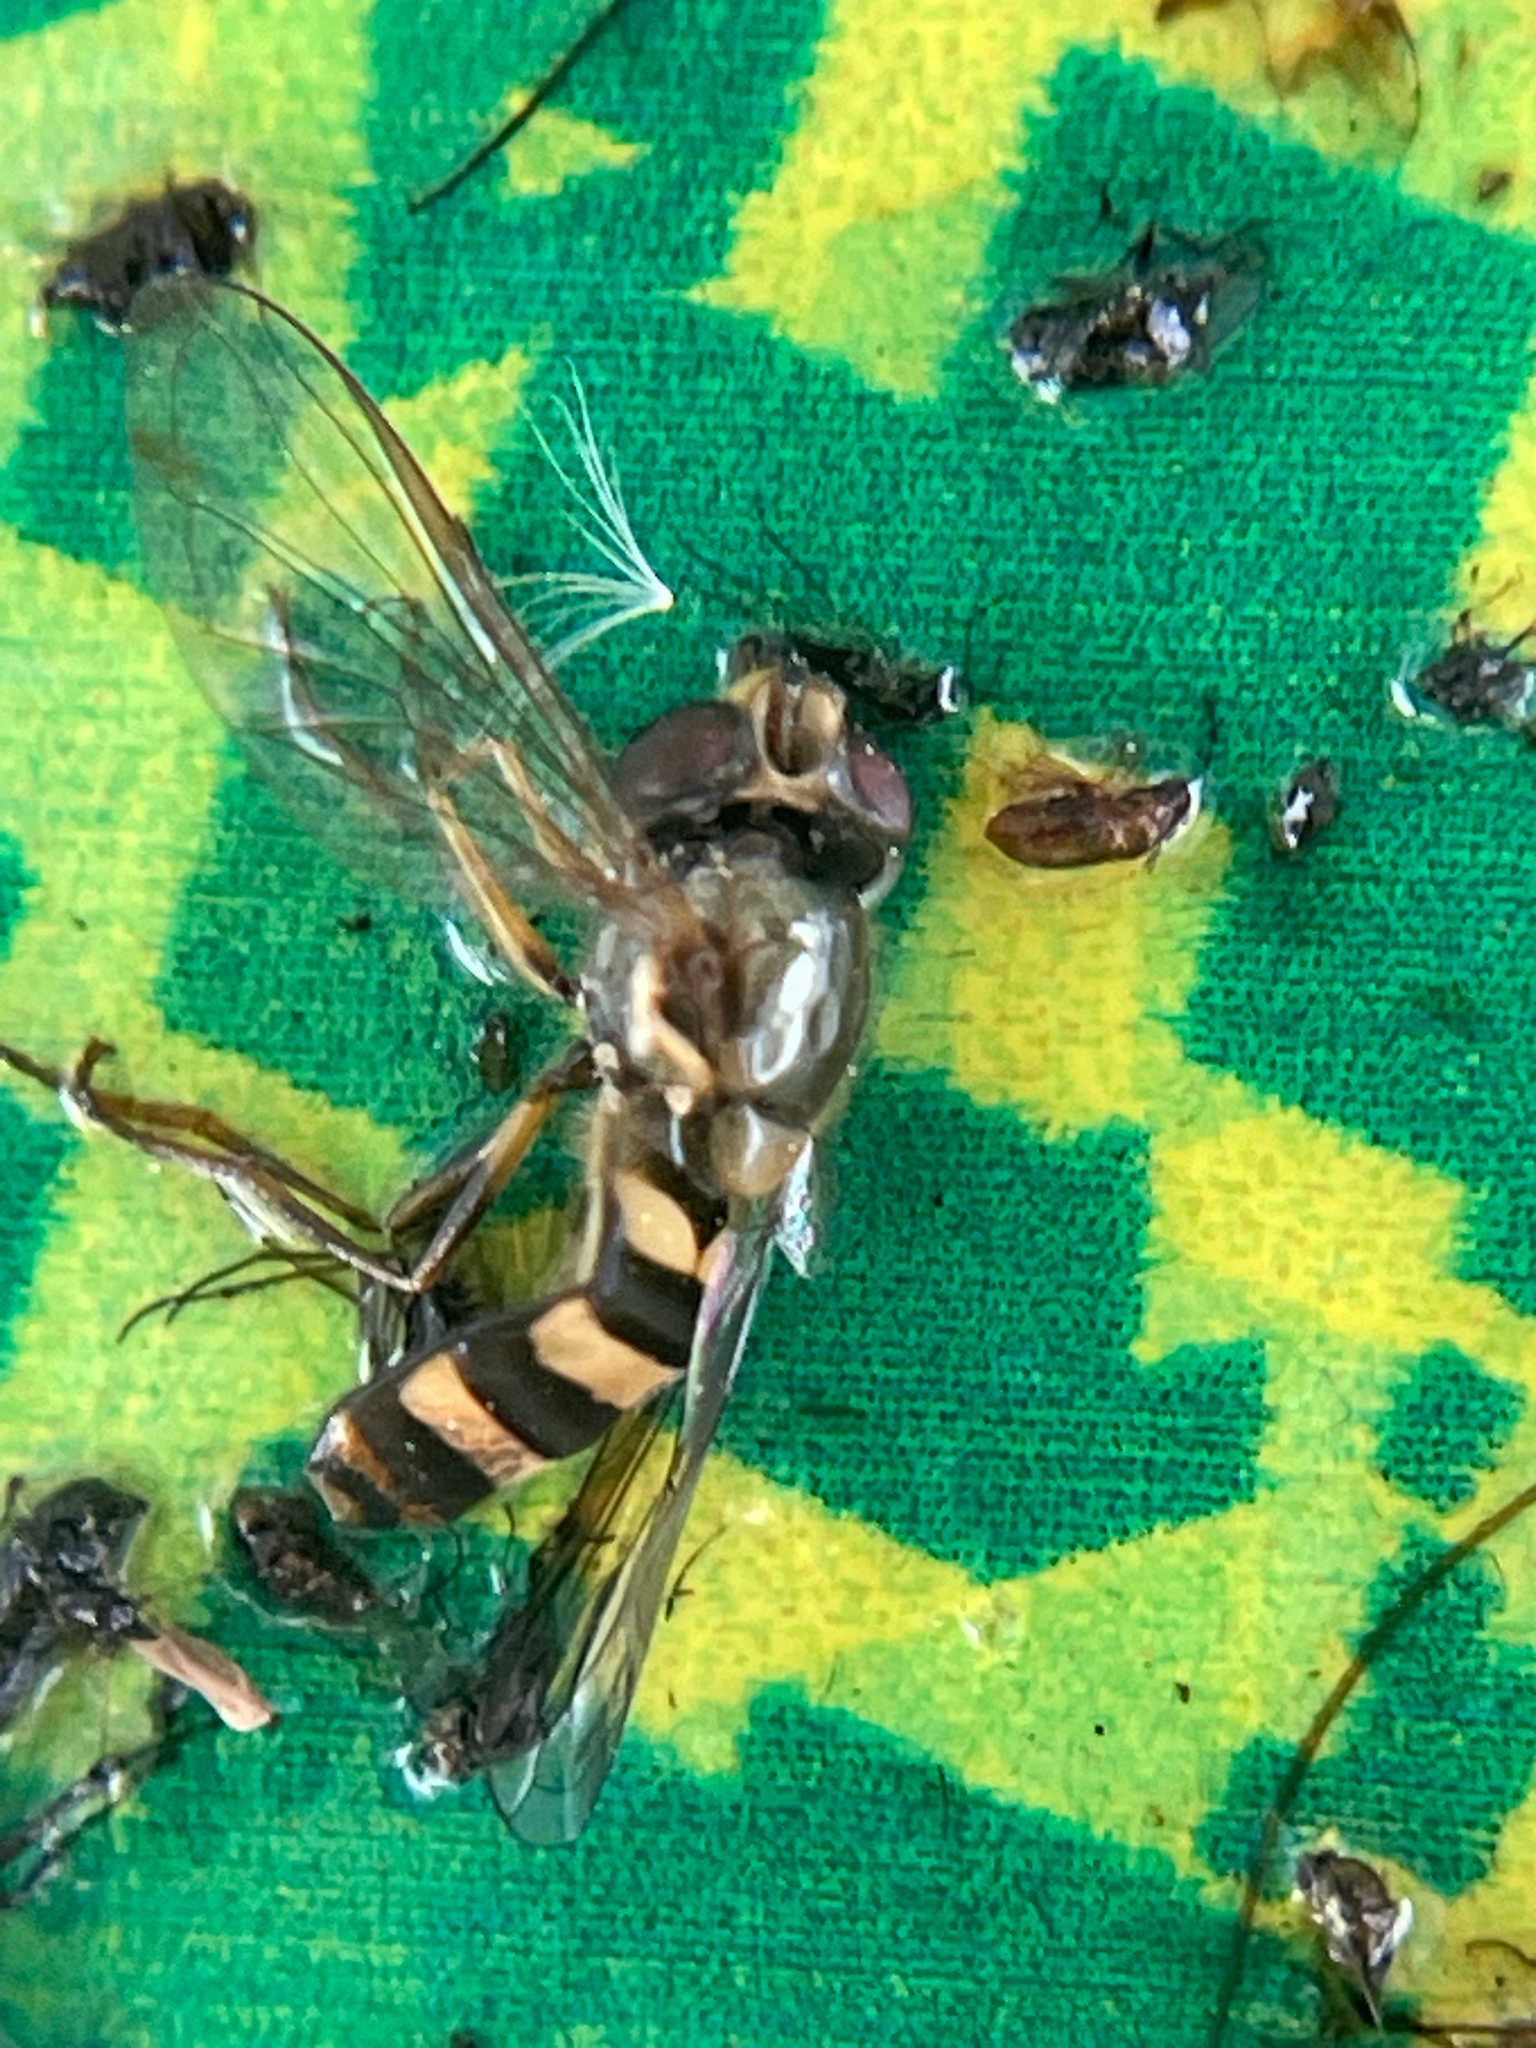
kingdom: Animalia
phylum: Arthropoda
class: Insecta
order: Diptera
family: Syrphidae
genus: Eupeodes
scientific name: Eupeodes
